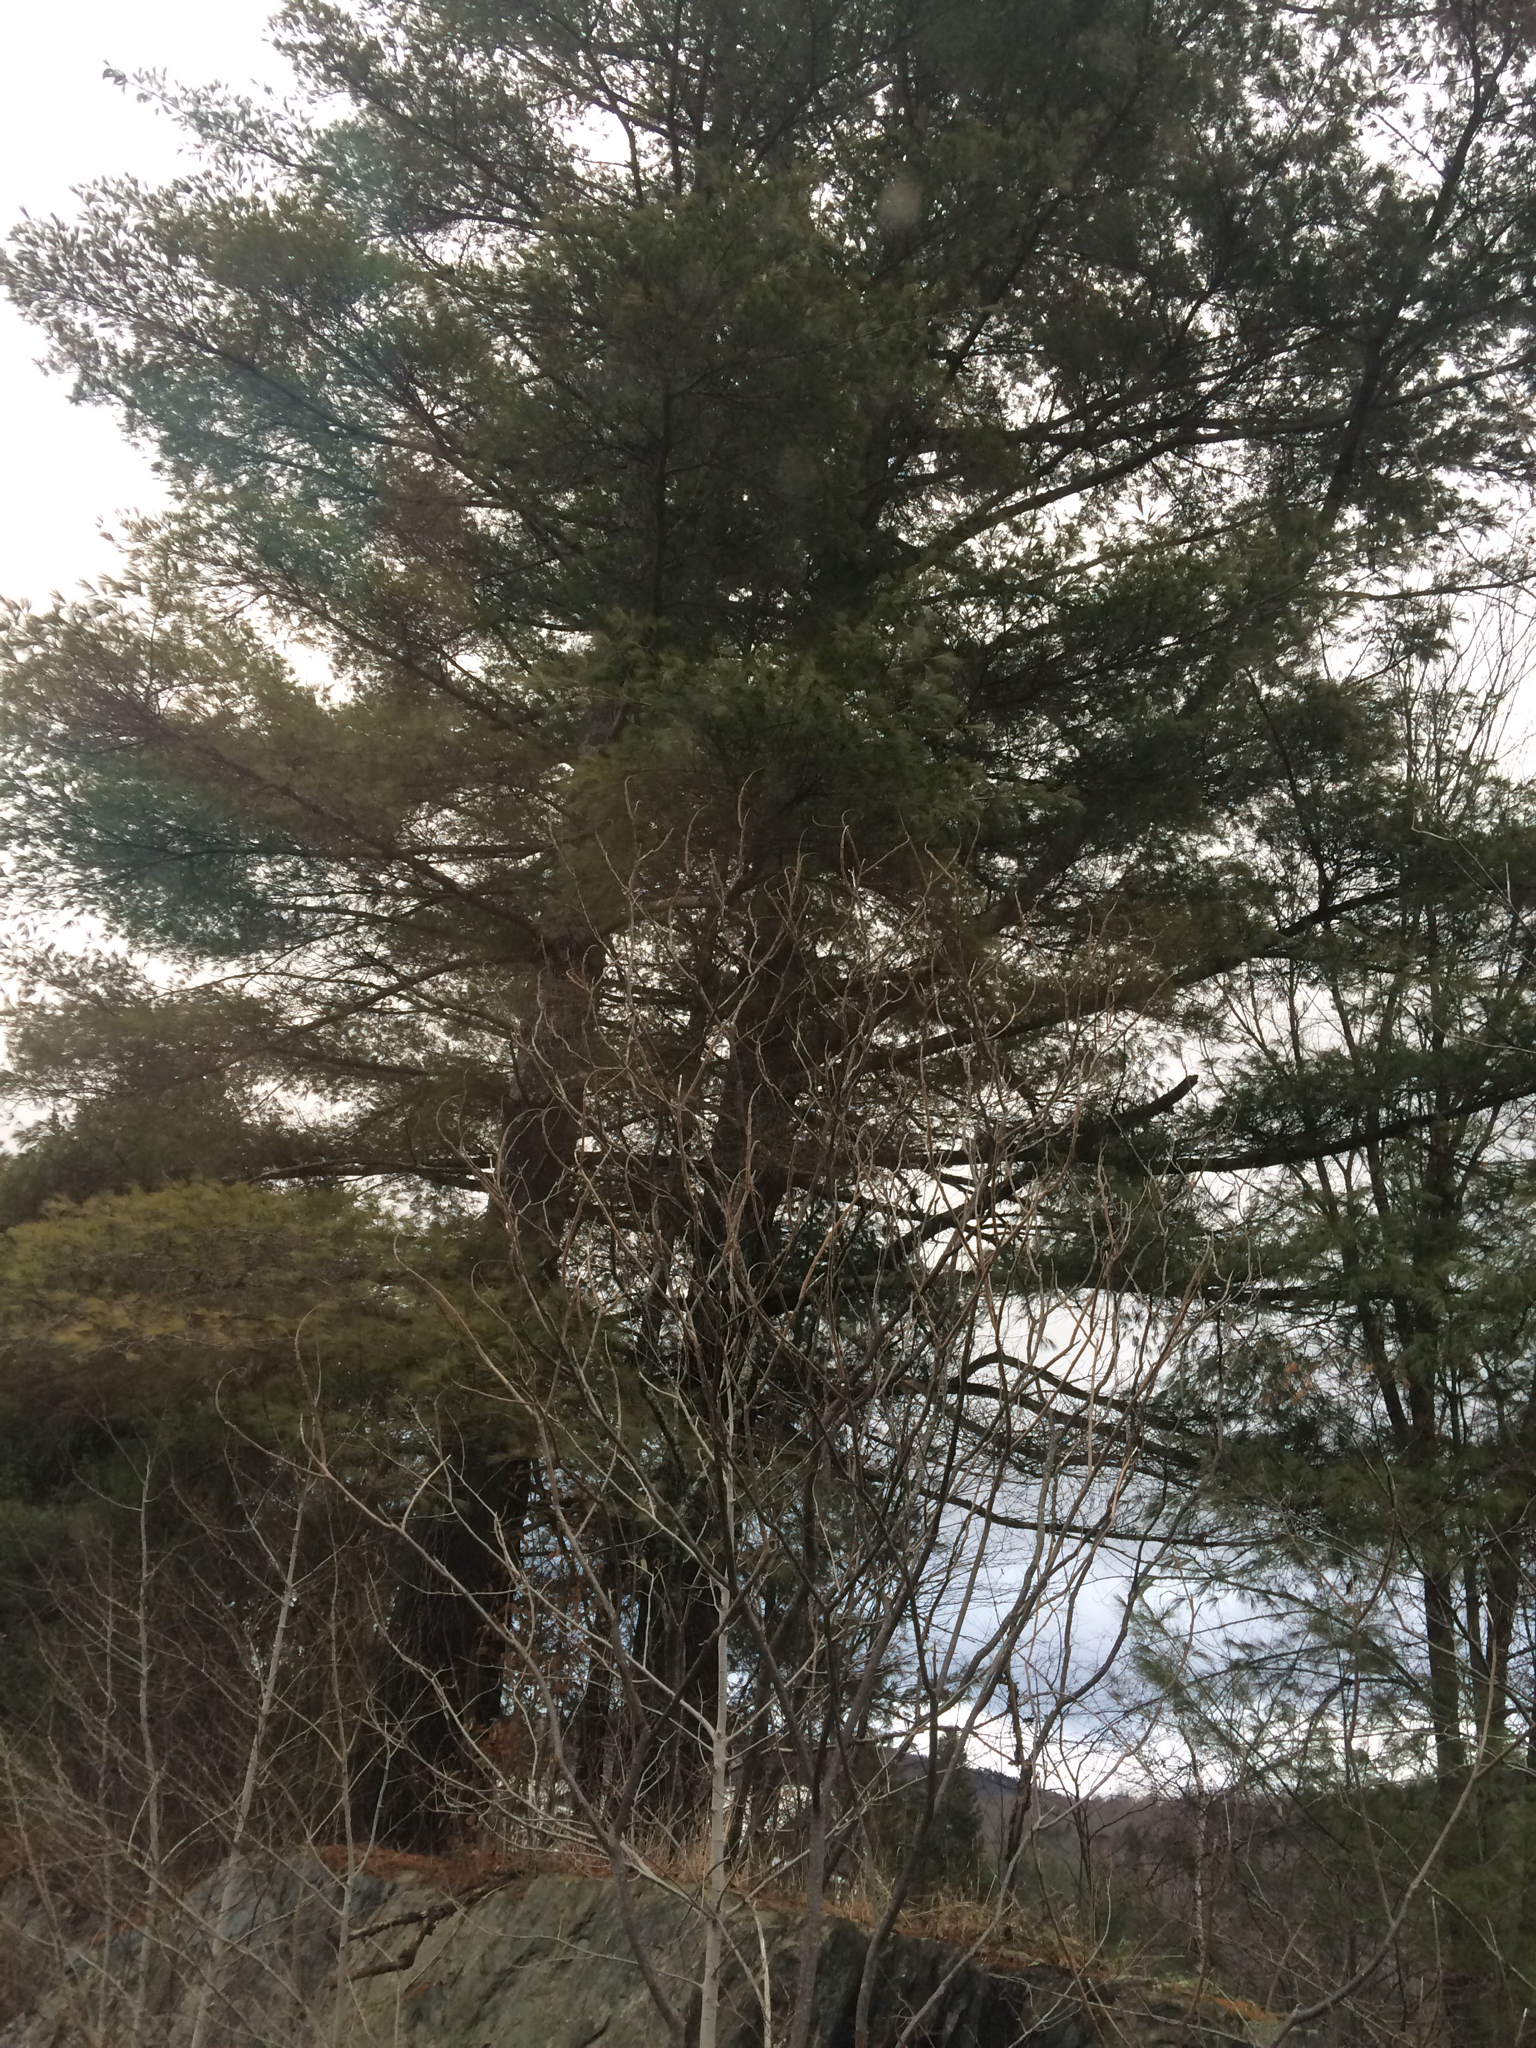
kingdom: Plantae
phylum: Tracheophyta
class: Pinopsida
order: Pinales
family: Pinaceae
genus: Pinus
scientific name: Pinus strobus
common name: Weymouth pine
